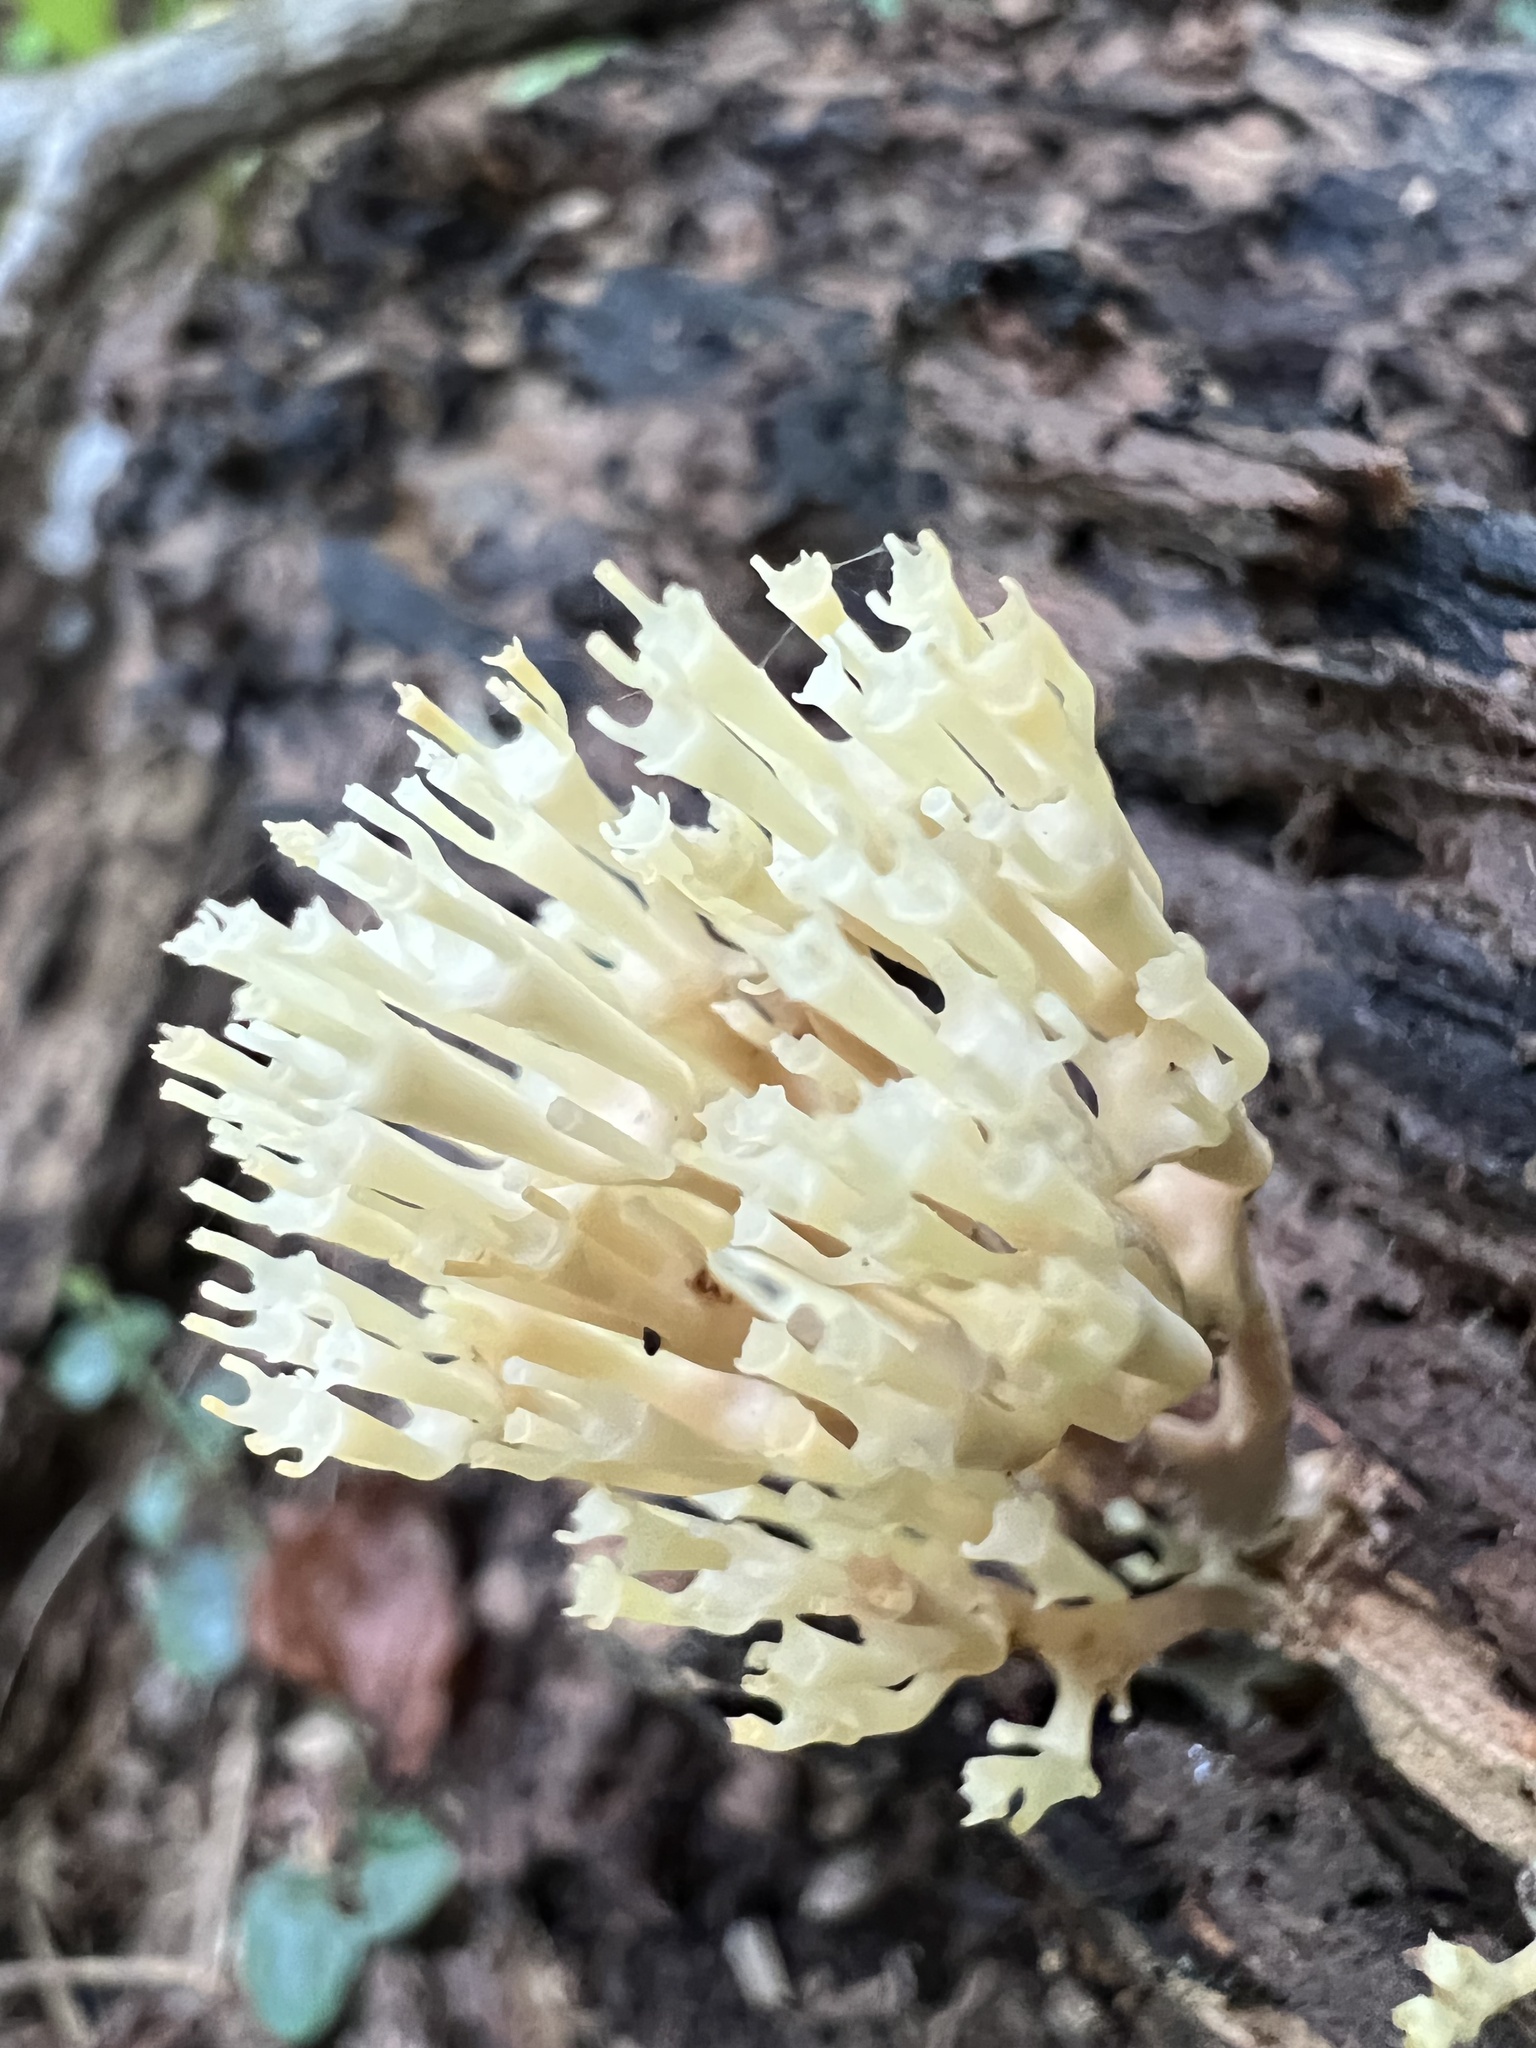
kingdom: Fungi
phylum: Basidiomycota
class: Agaricomycetes
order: Russulales
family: Auriscalpiaceae
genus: Artomyces
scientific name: Artomyces pyxidatus
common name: Crown-tipped coral fungus
